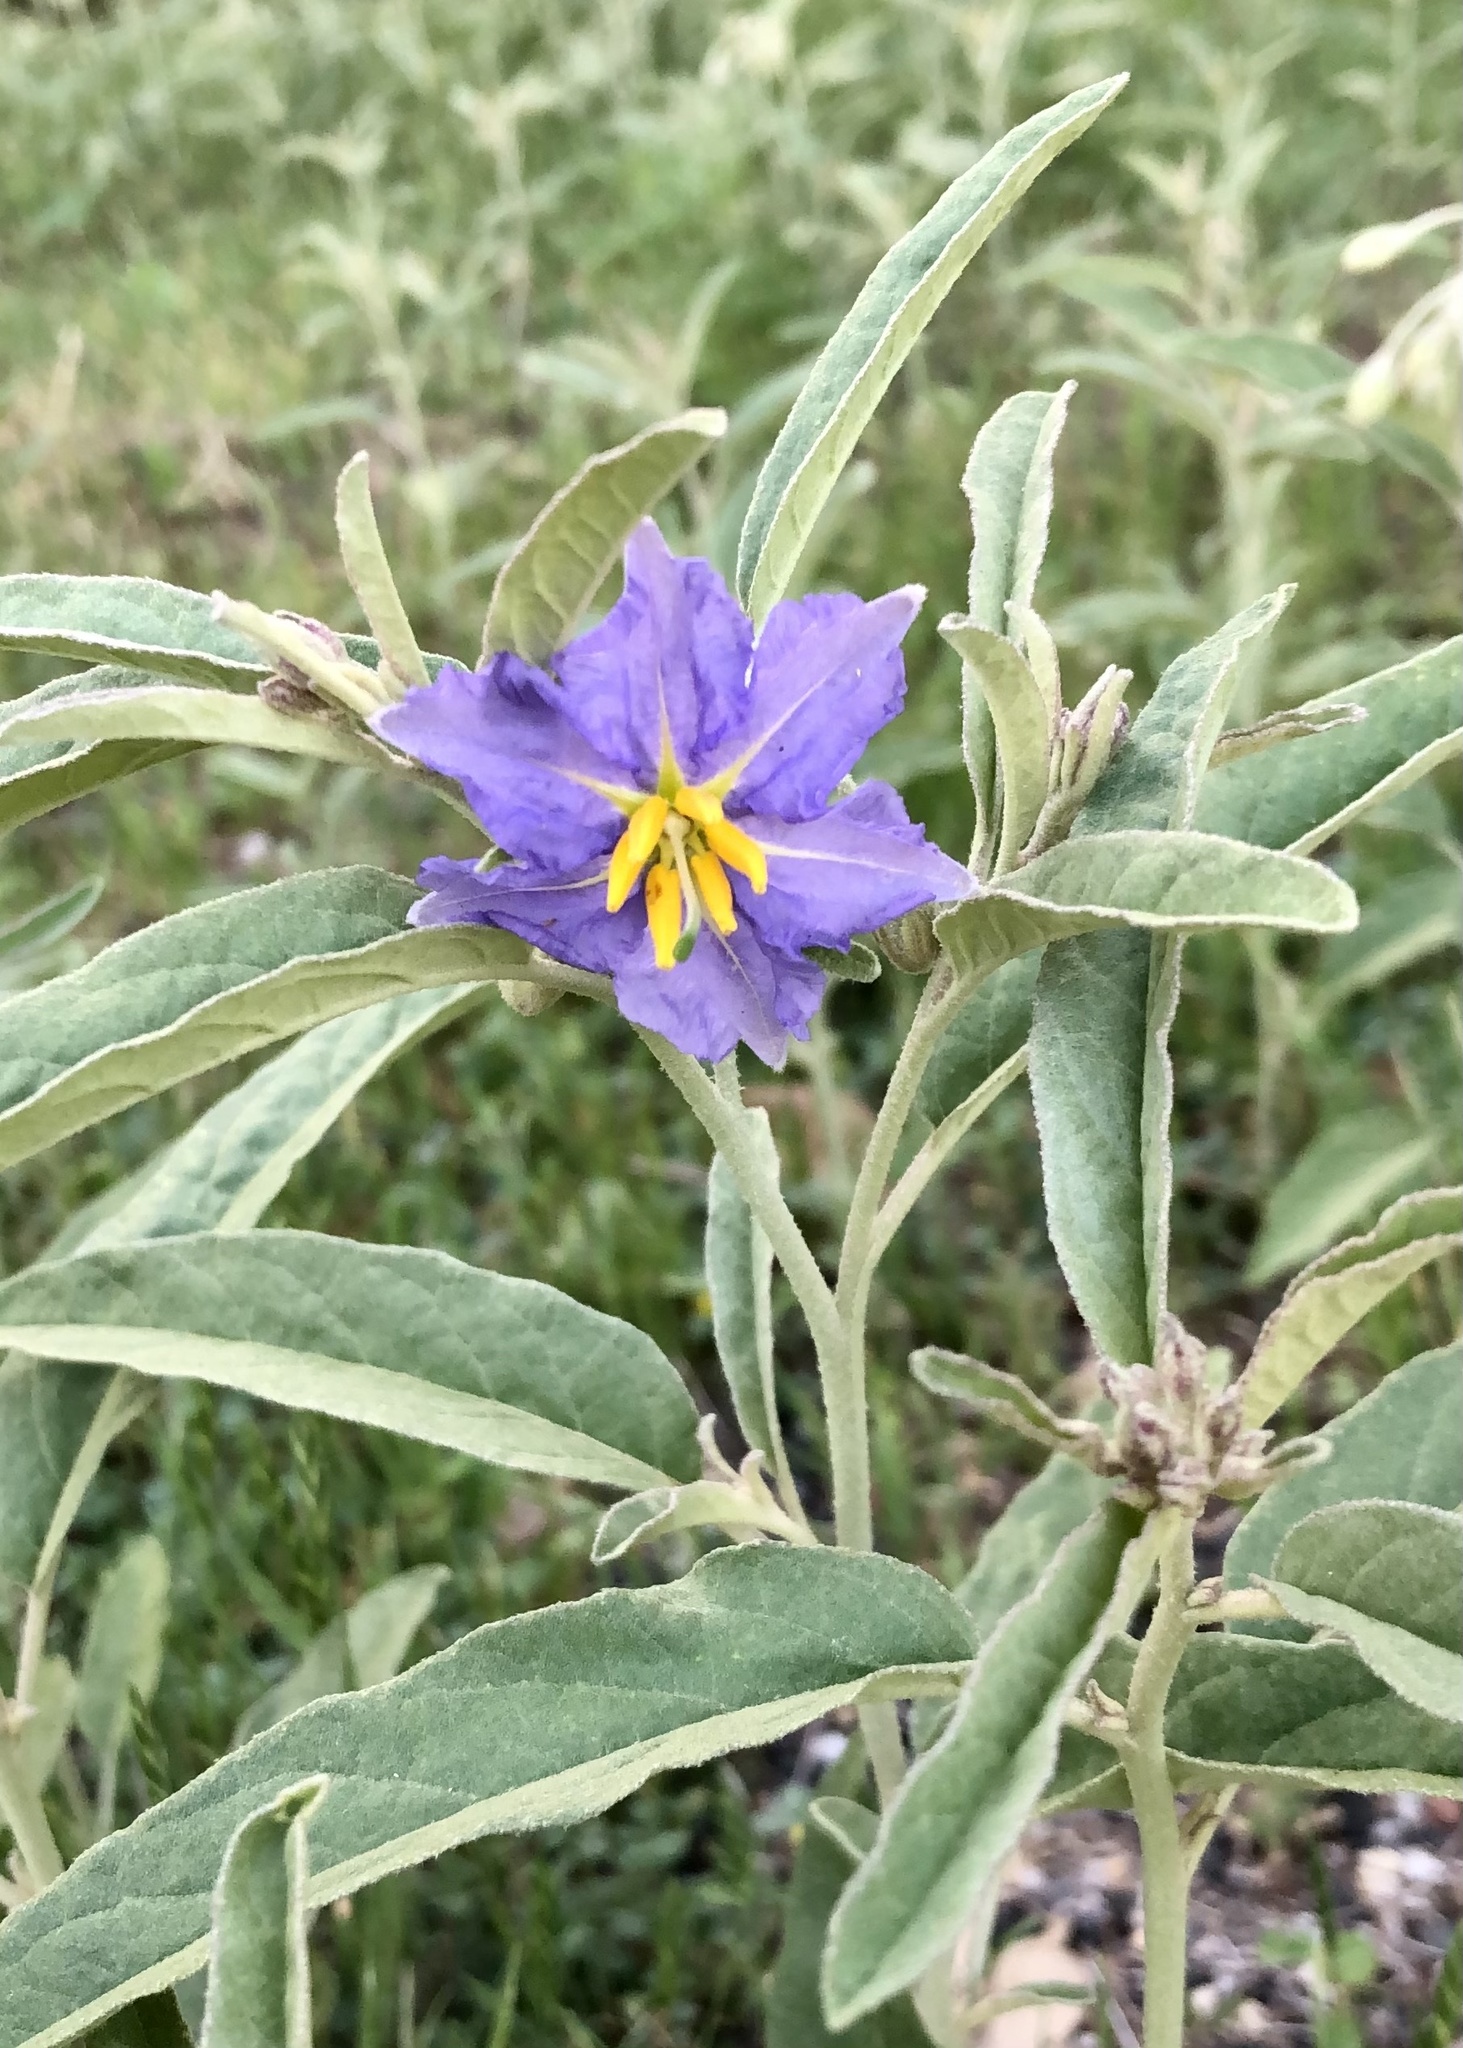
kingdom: Plantae
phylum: Tracheophyta
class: Magnoliopsida
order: Solanales
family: Solanaceae
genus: Solanum
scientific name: Solanum elaeagnifolium
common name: Silverleaf nightshade
